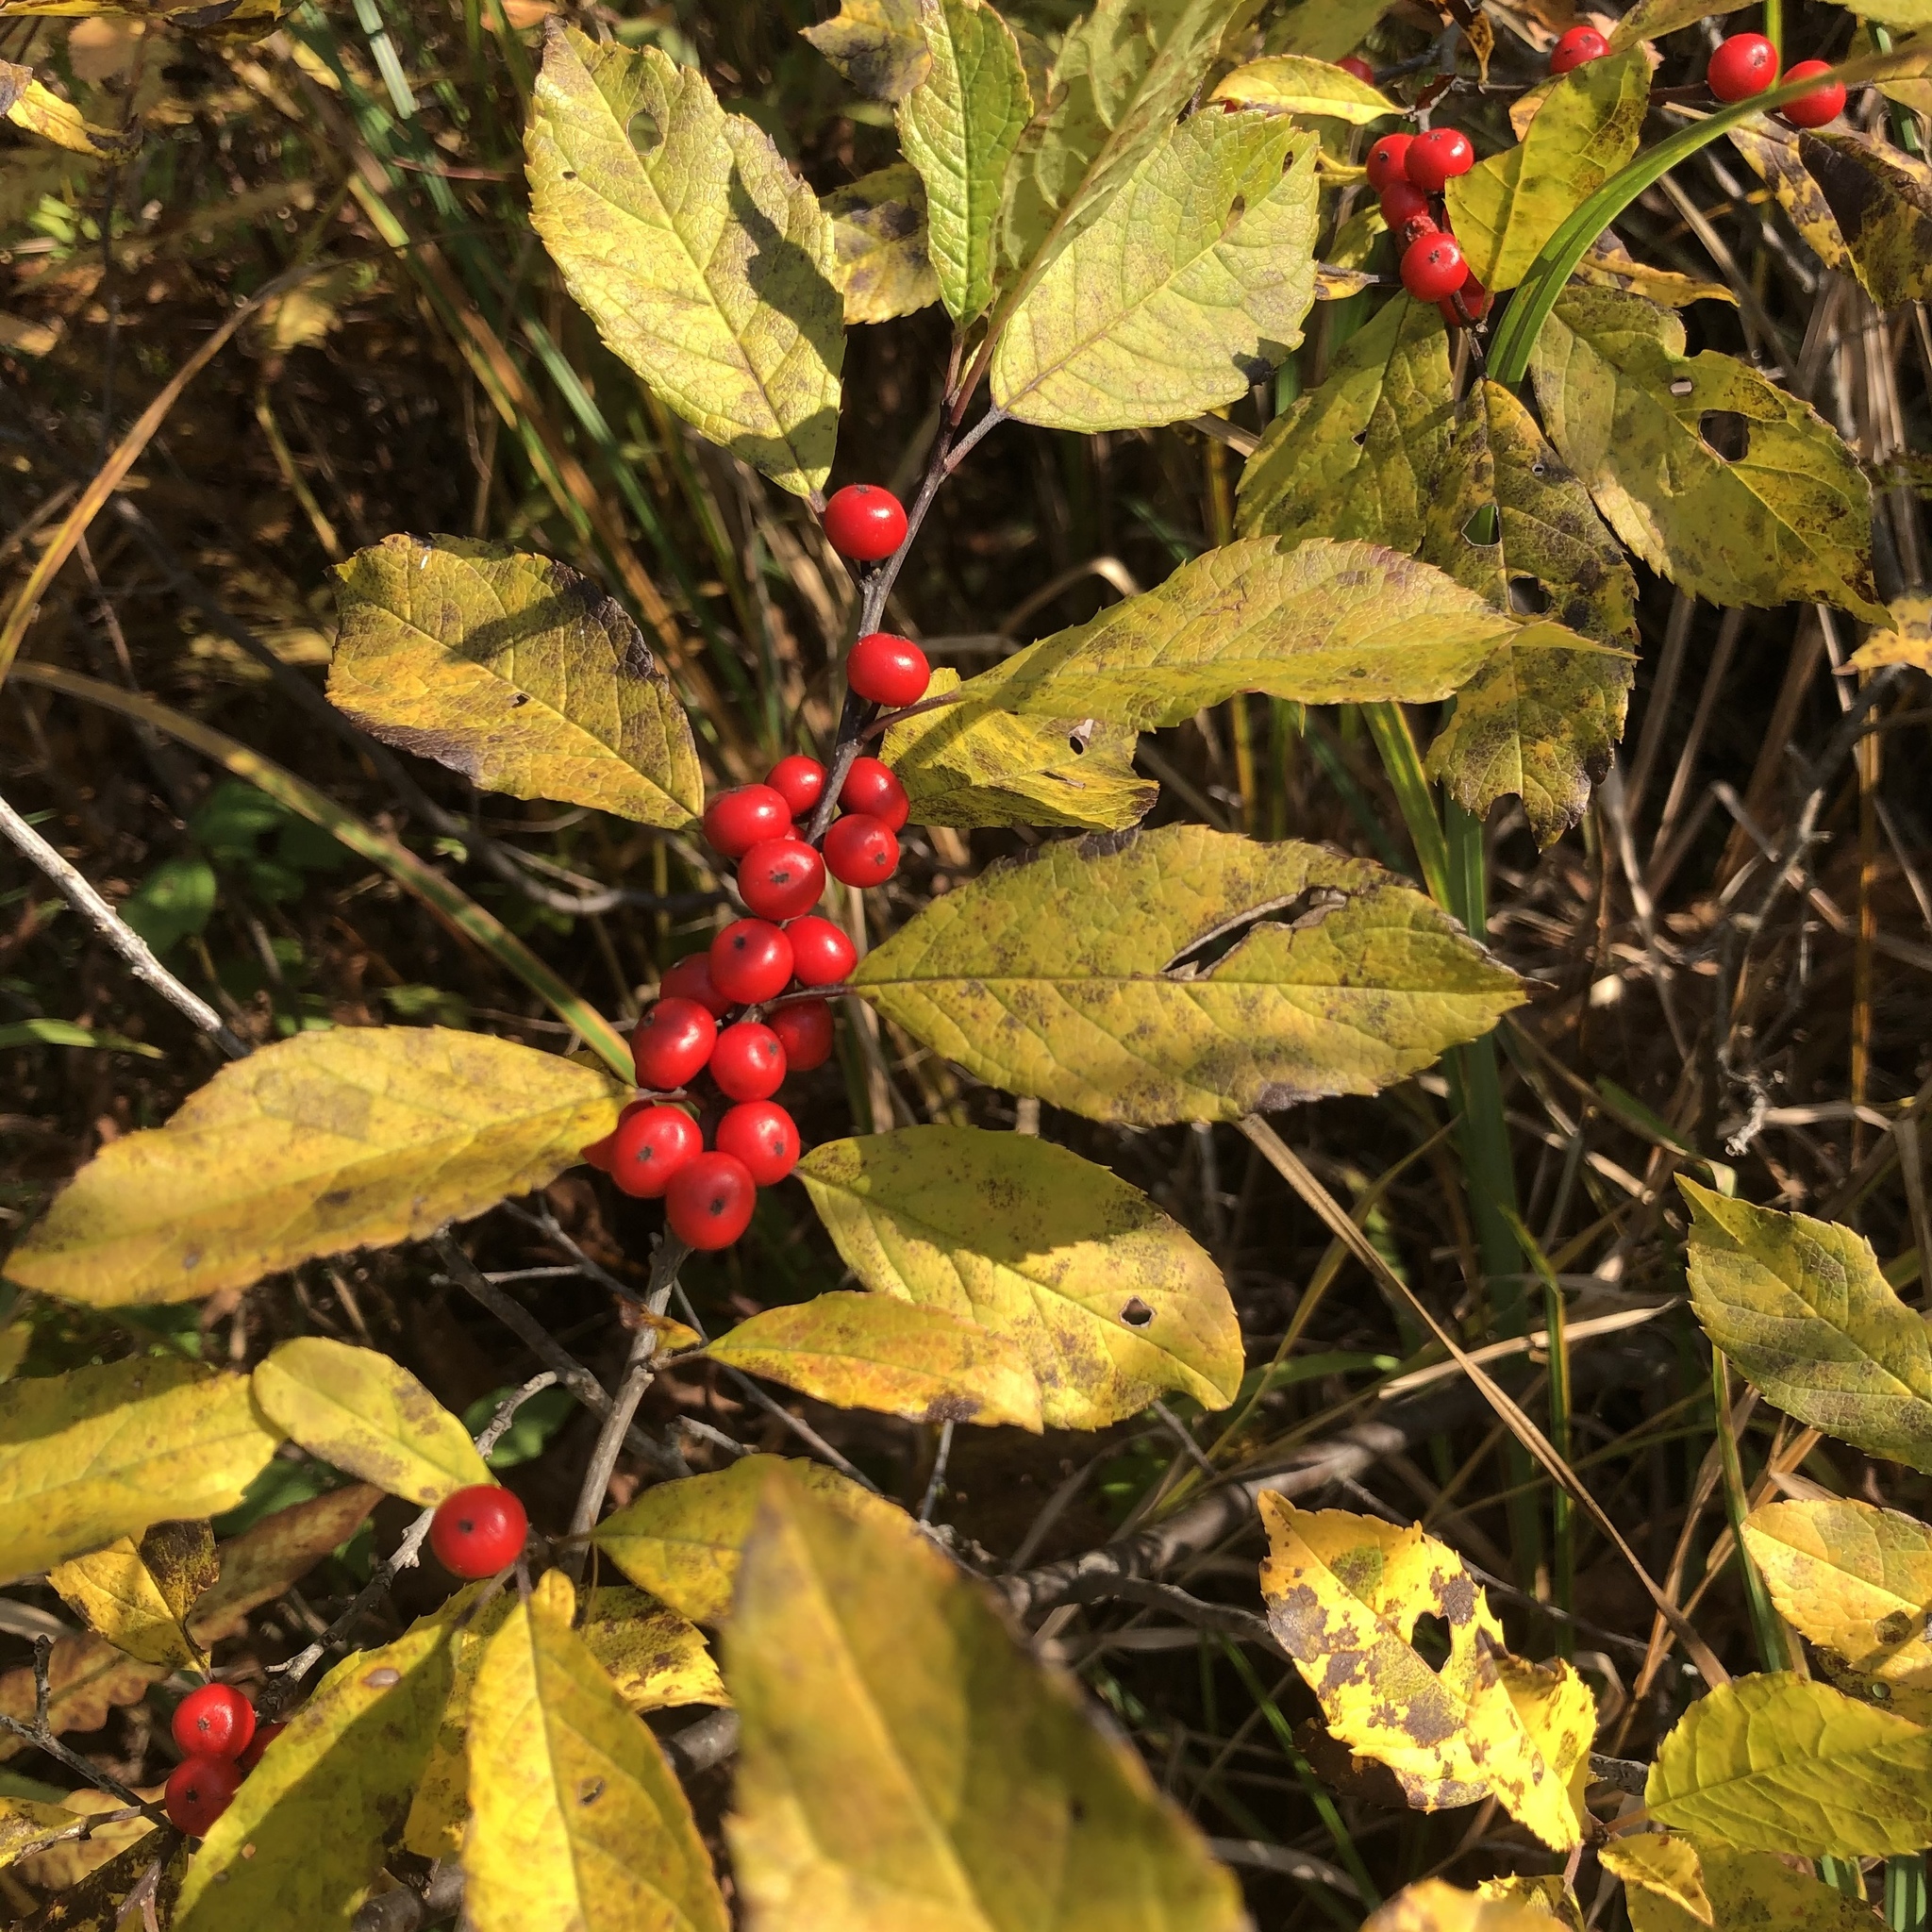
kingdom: Plantae
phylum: Tracheophyta
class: Magnoliopsida
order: Aquifoliales
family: Aquifoliaceae
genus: Ilex
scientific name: Ilex verticillata
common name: Virginia winterberry
